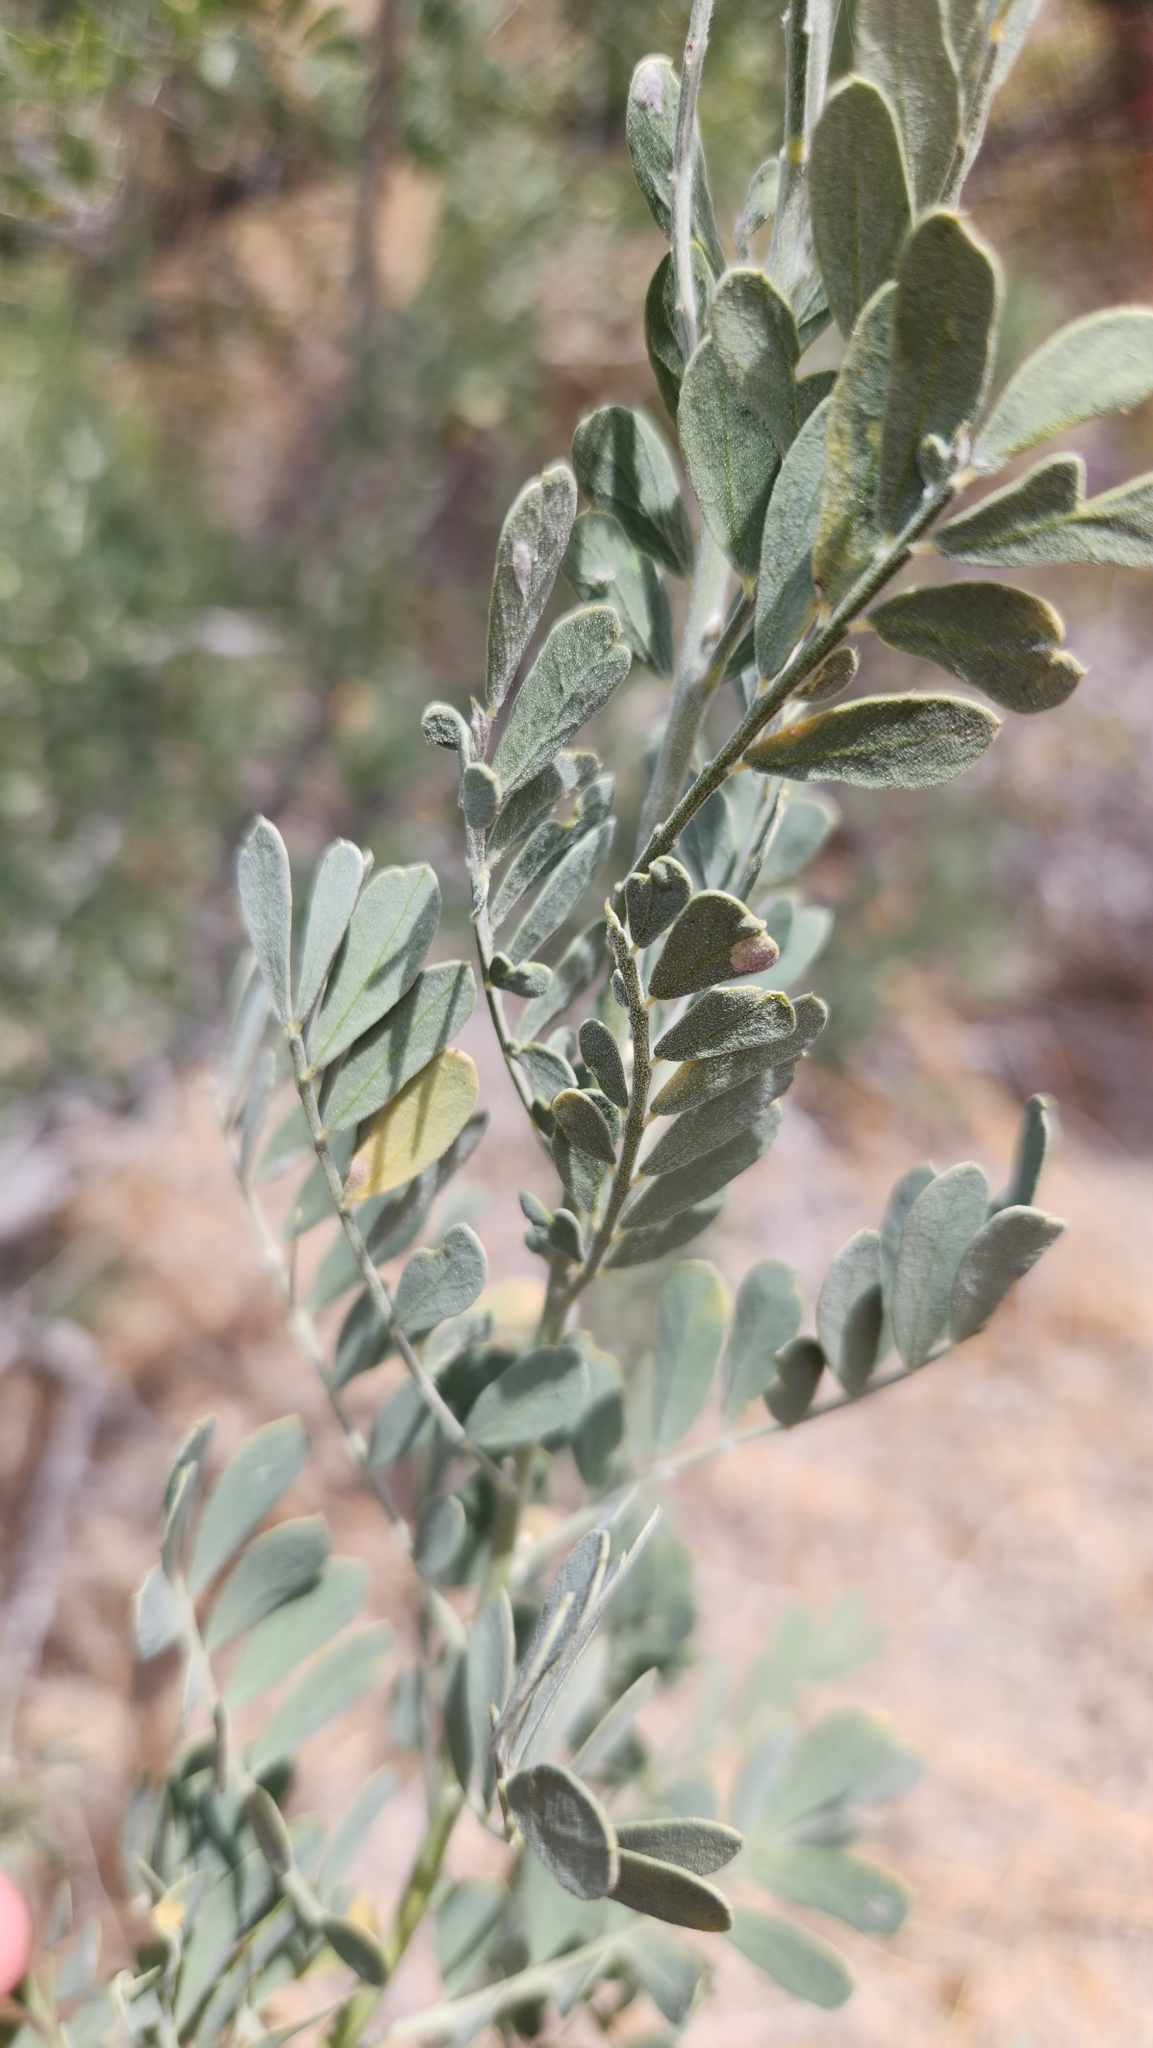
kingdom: Plantae
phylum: Tracheophyta
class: Magnoliopsida
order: Fabales
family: Fabaceae
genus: Olneya
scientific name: Olneya tesota
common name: Desert ironwood
